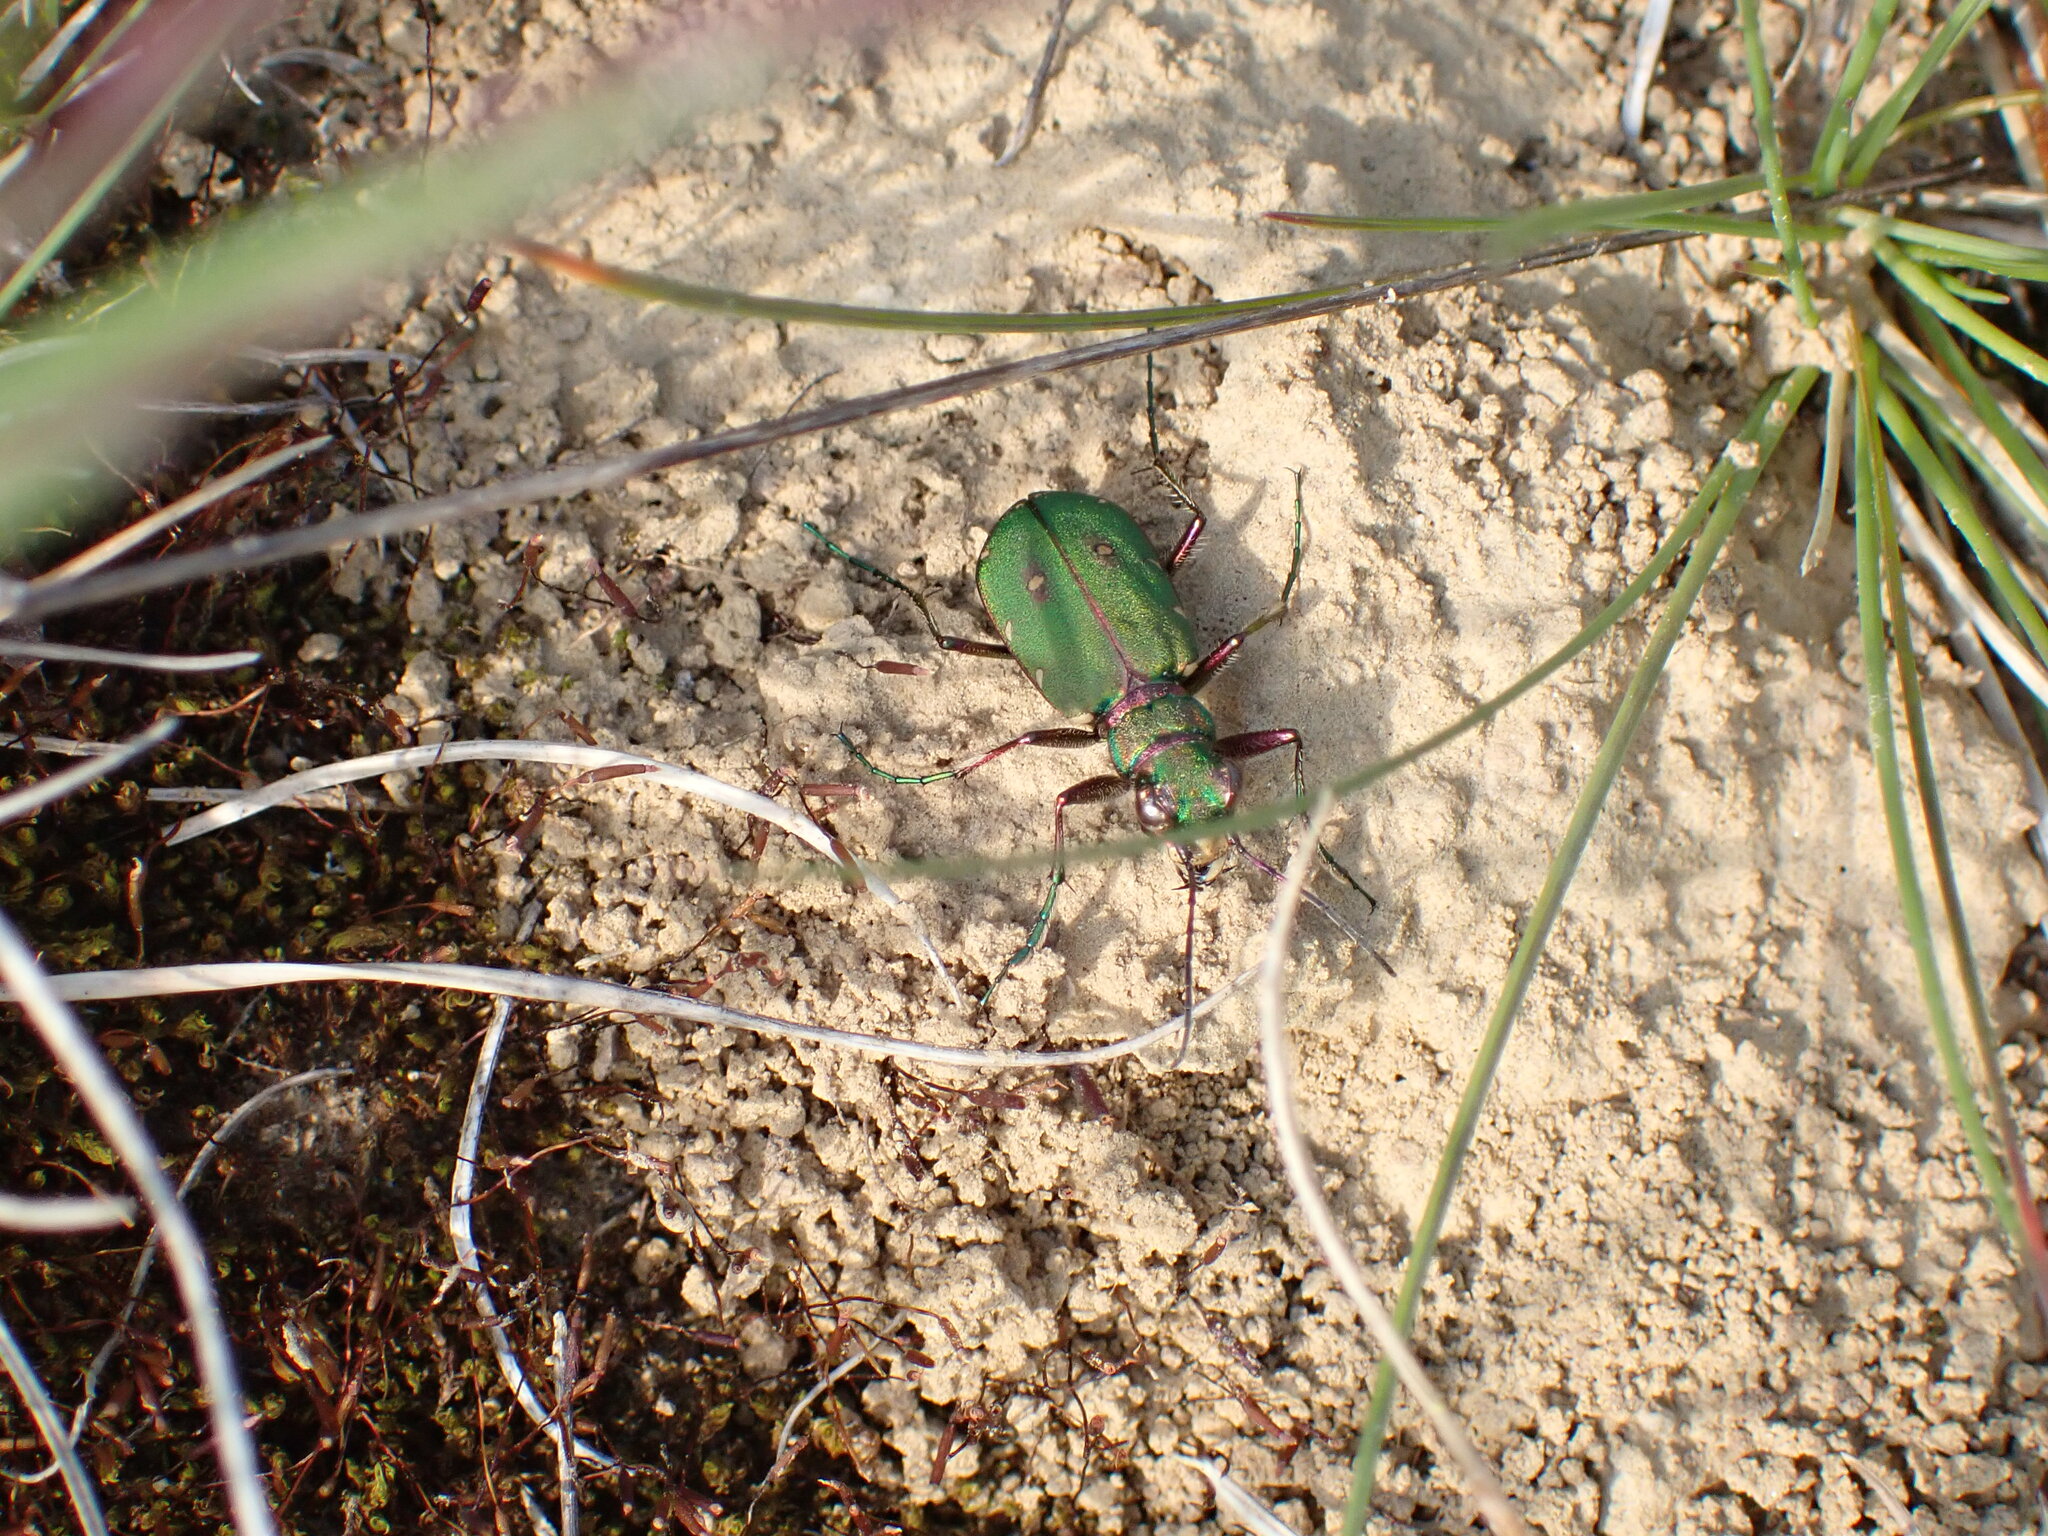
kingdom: Animalia
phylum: Arthropoda
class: Insecta
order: Coleoptera
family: Carabidae
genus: Cicindela
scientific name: Cicindela campestris
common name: Common tiger beetle
